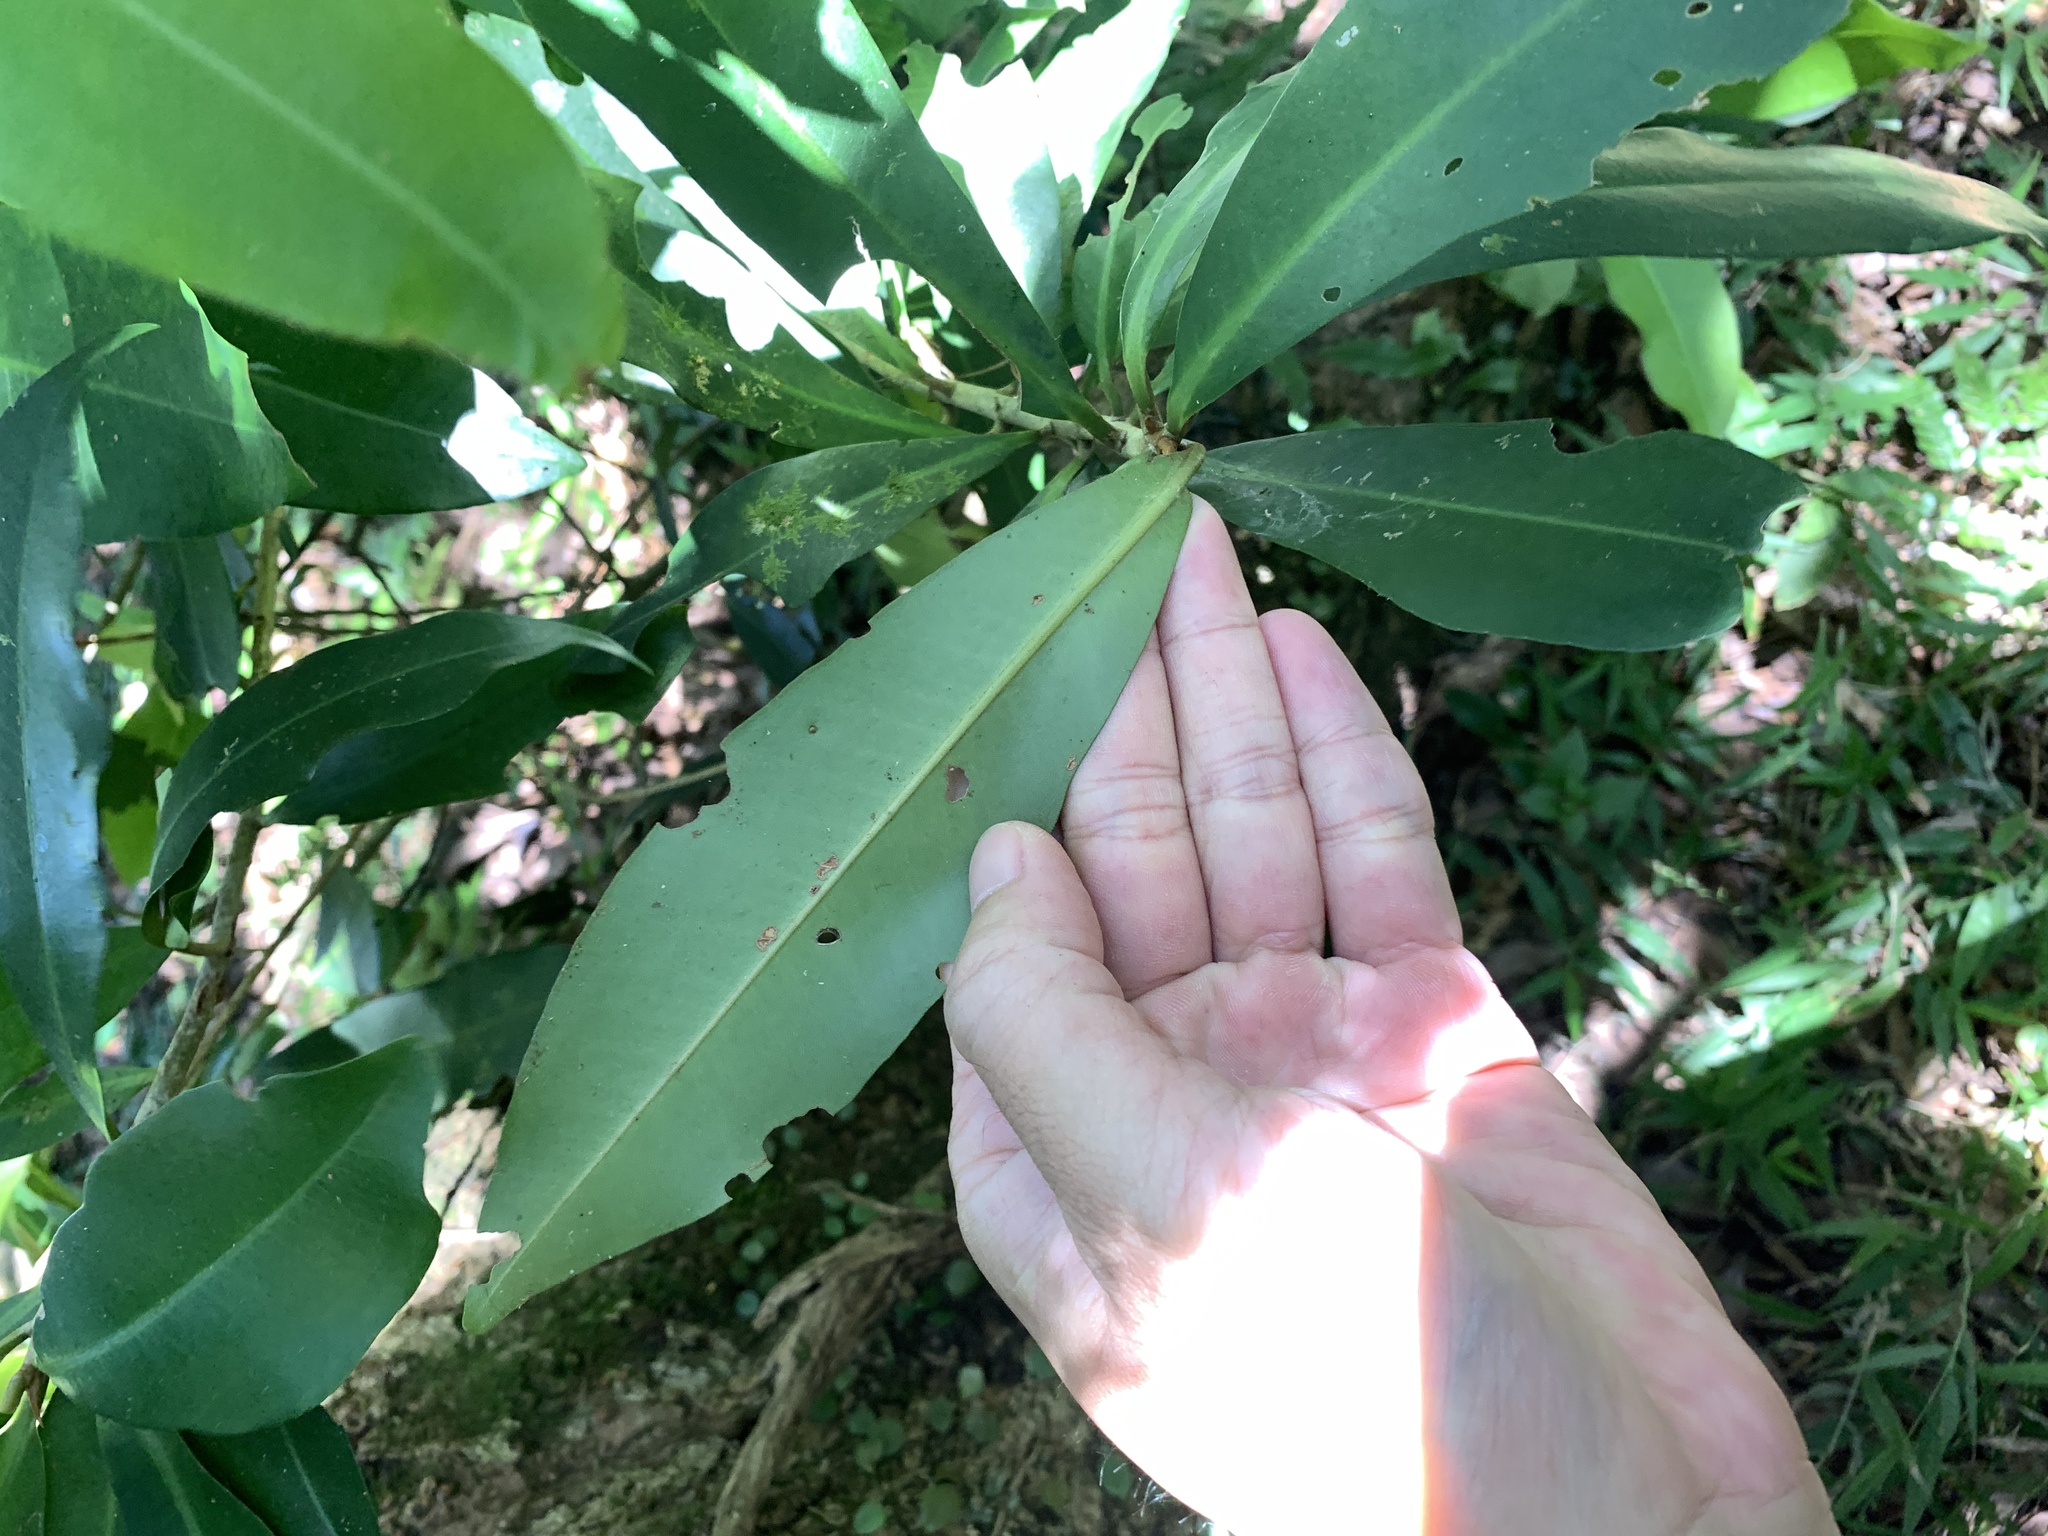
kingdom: Plantae
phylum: Tracheophyta
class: Magnoliopsida
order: Ericales
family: Primulaceae
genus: Ardisia
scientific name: Ardisia sieboldii
